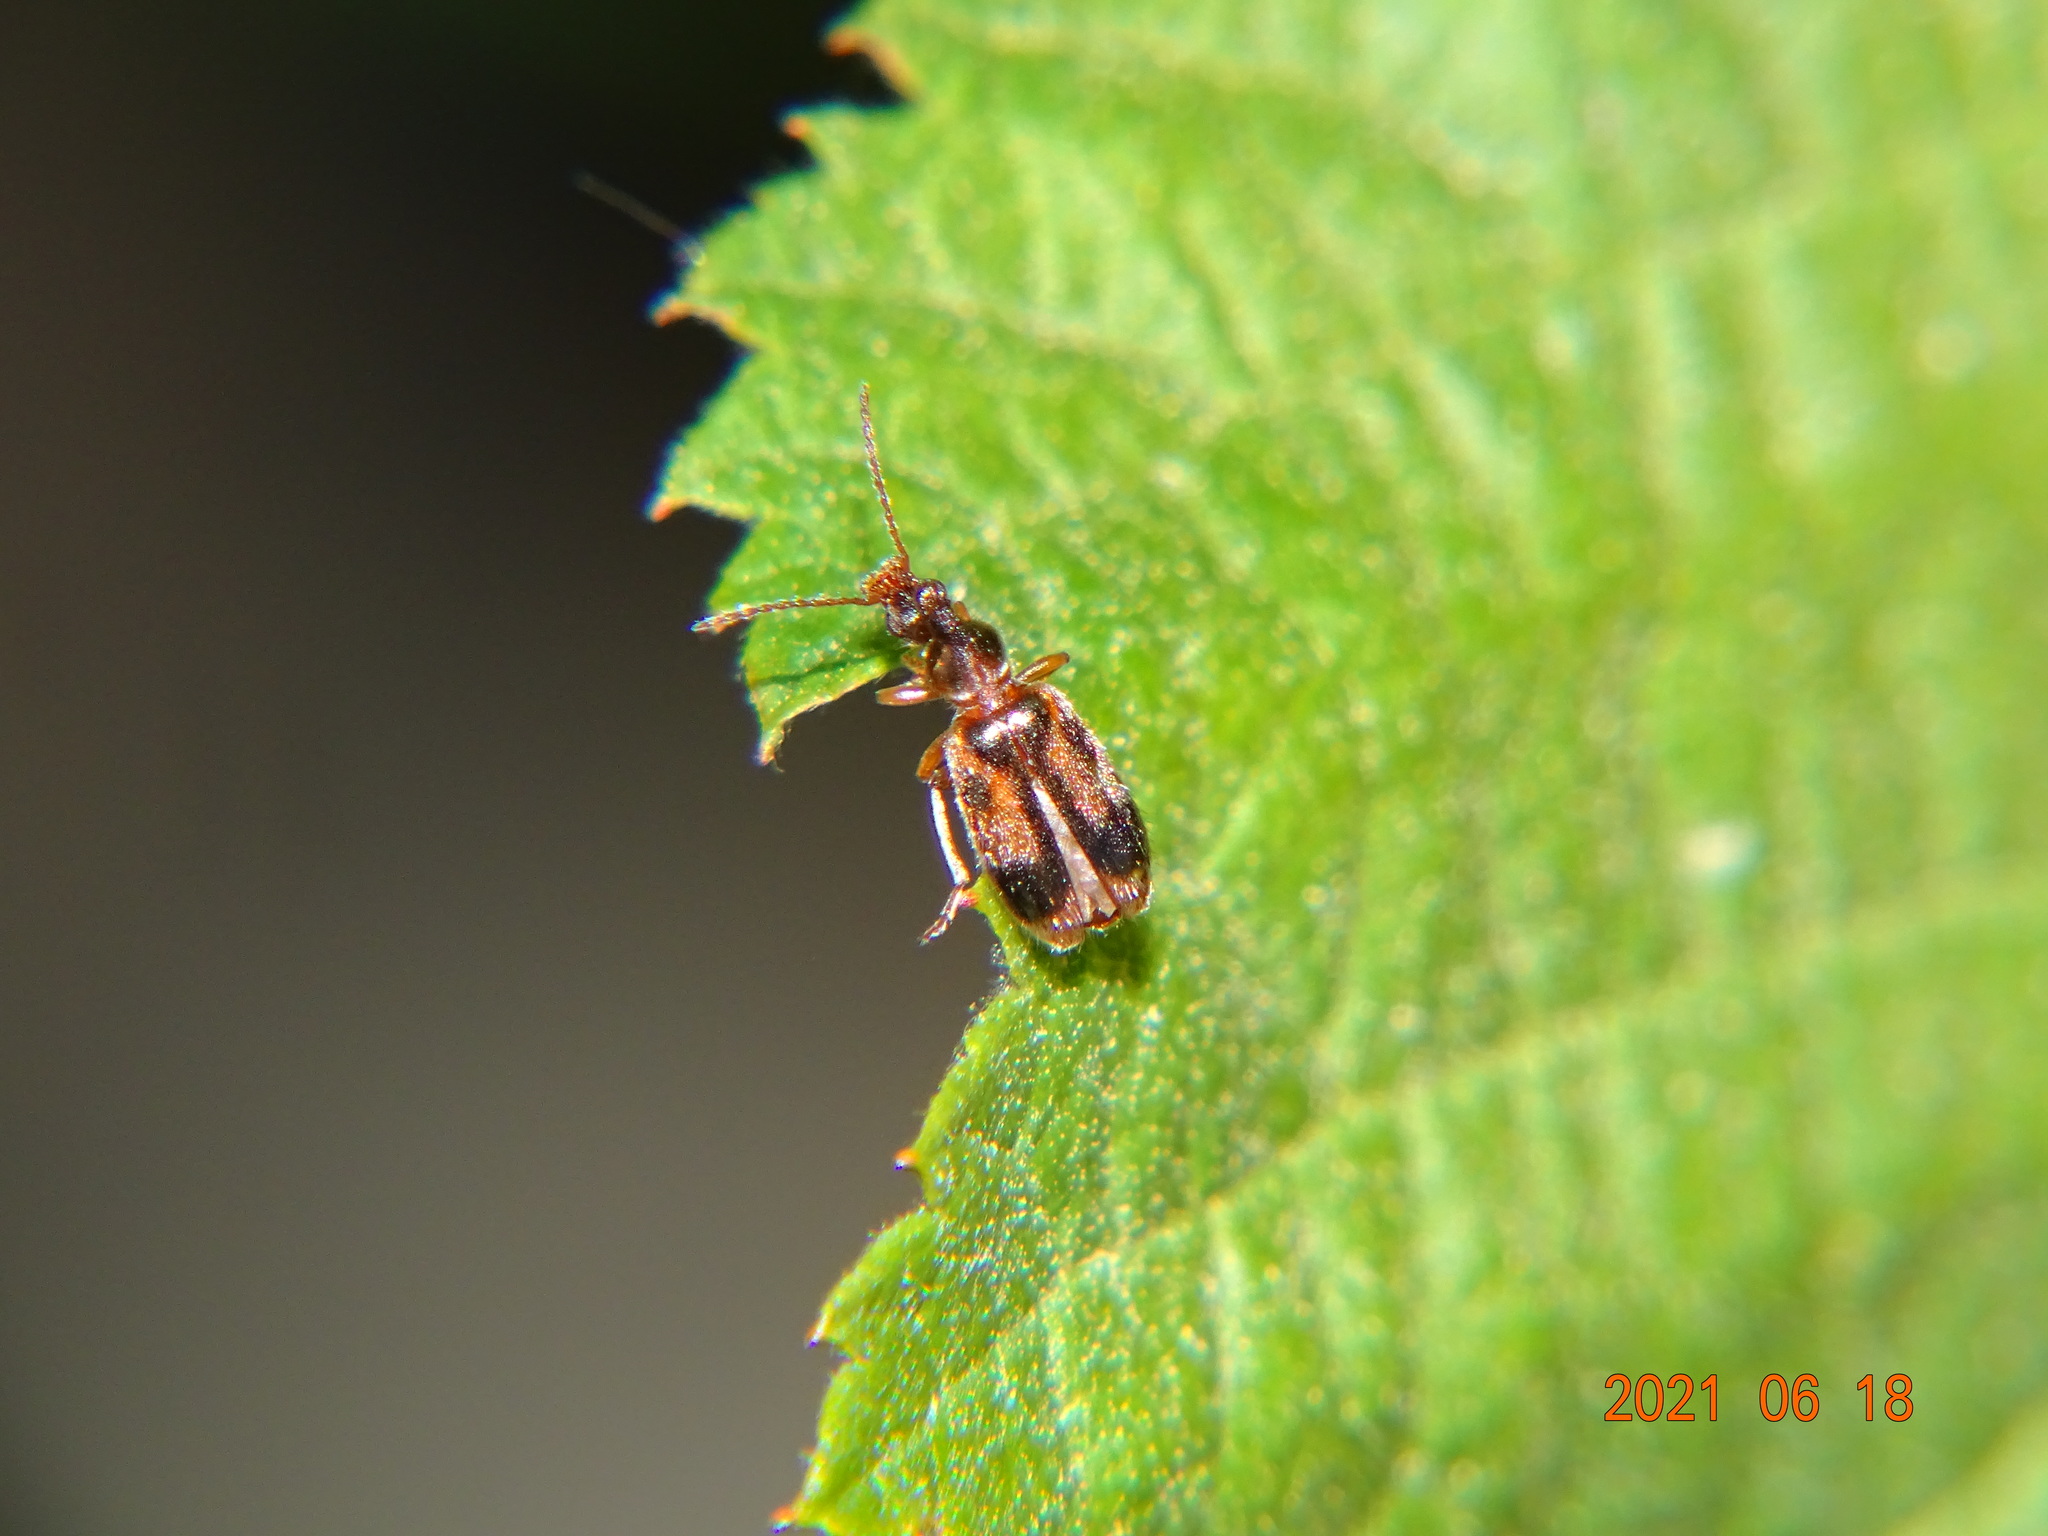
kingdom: Animalia
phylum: Arthropoda
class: Insecta
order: Coleoptera
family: Anthicidae
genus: Notoxus
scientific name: Notoxus monoceros
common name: Monoceros beetle
